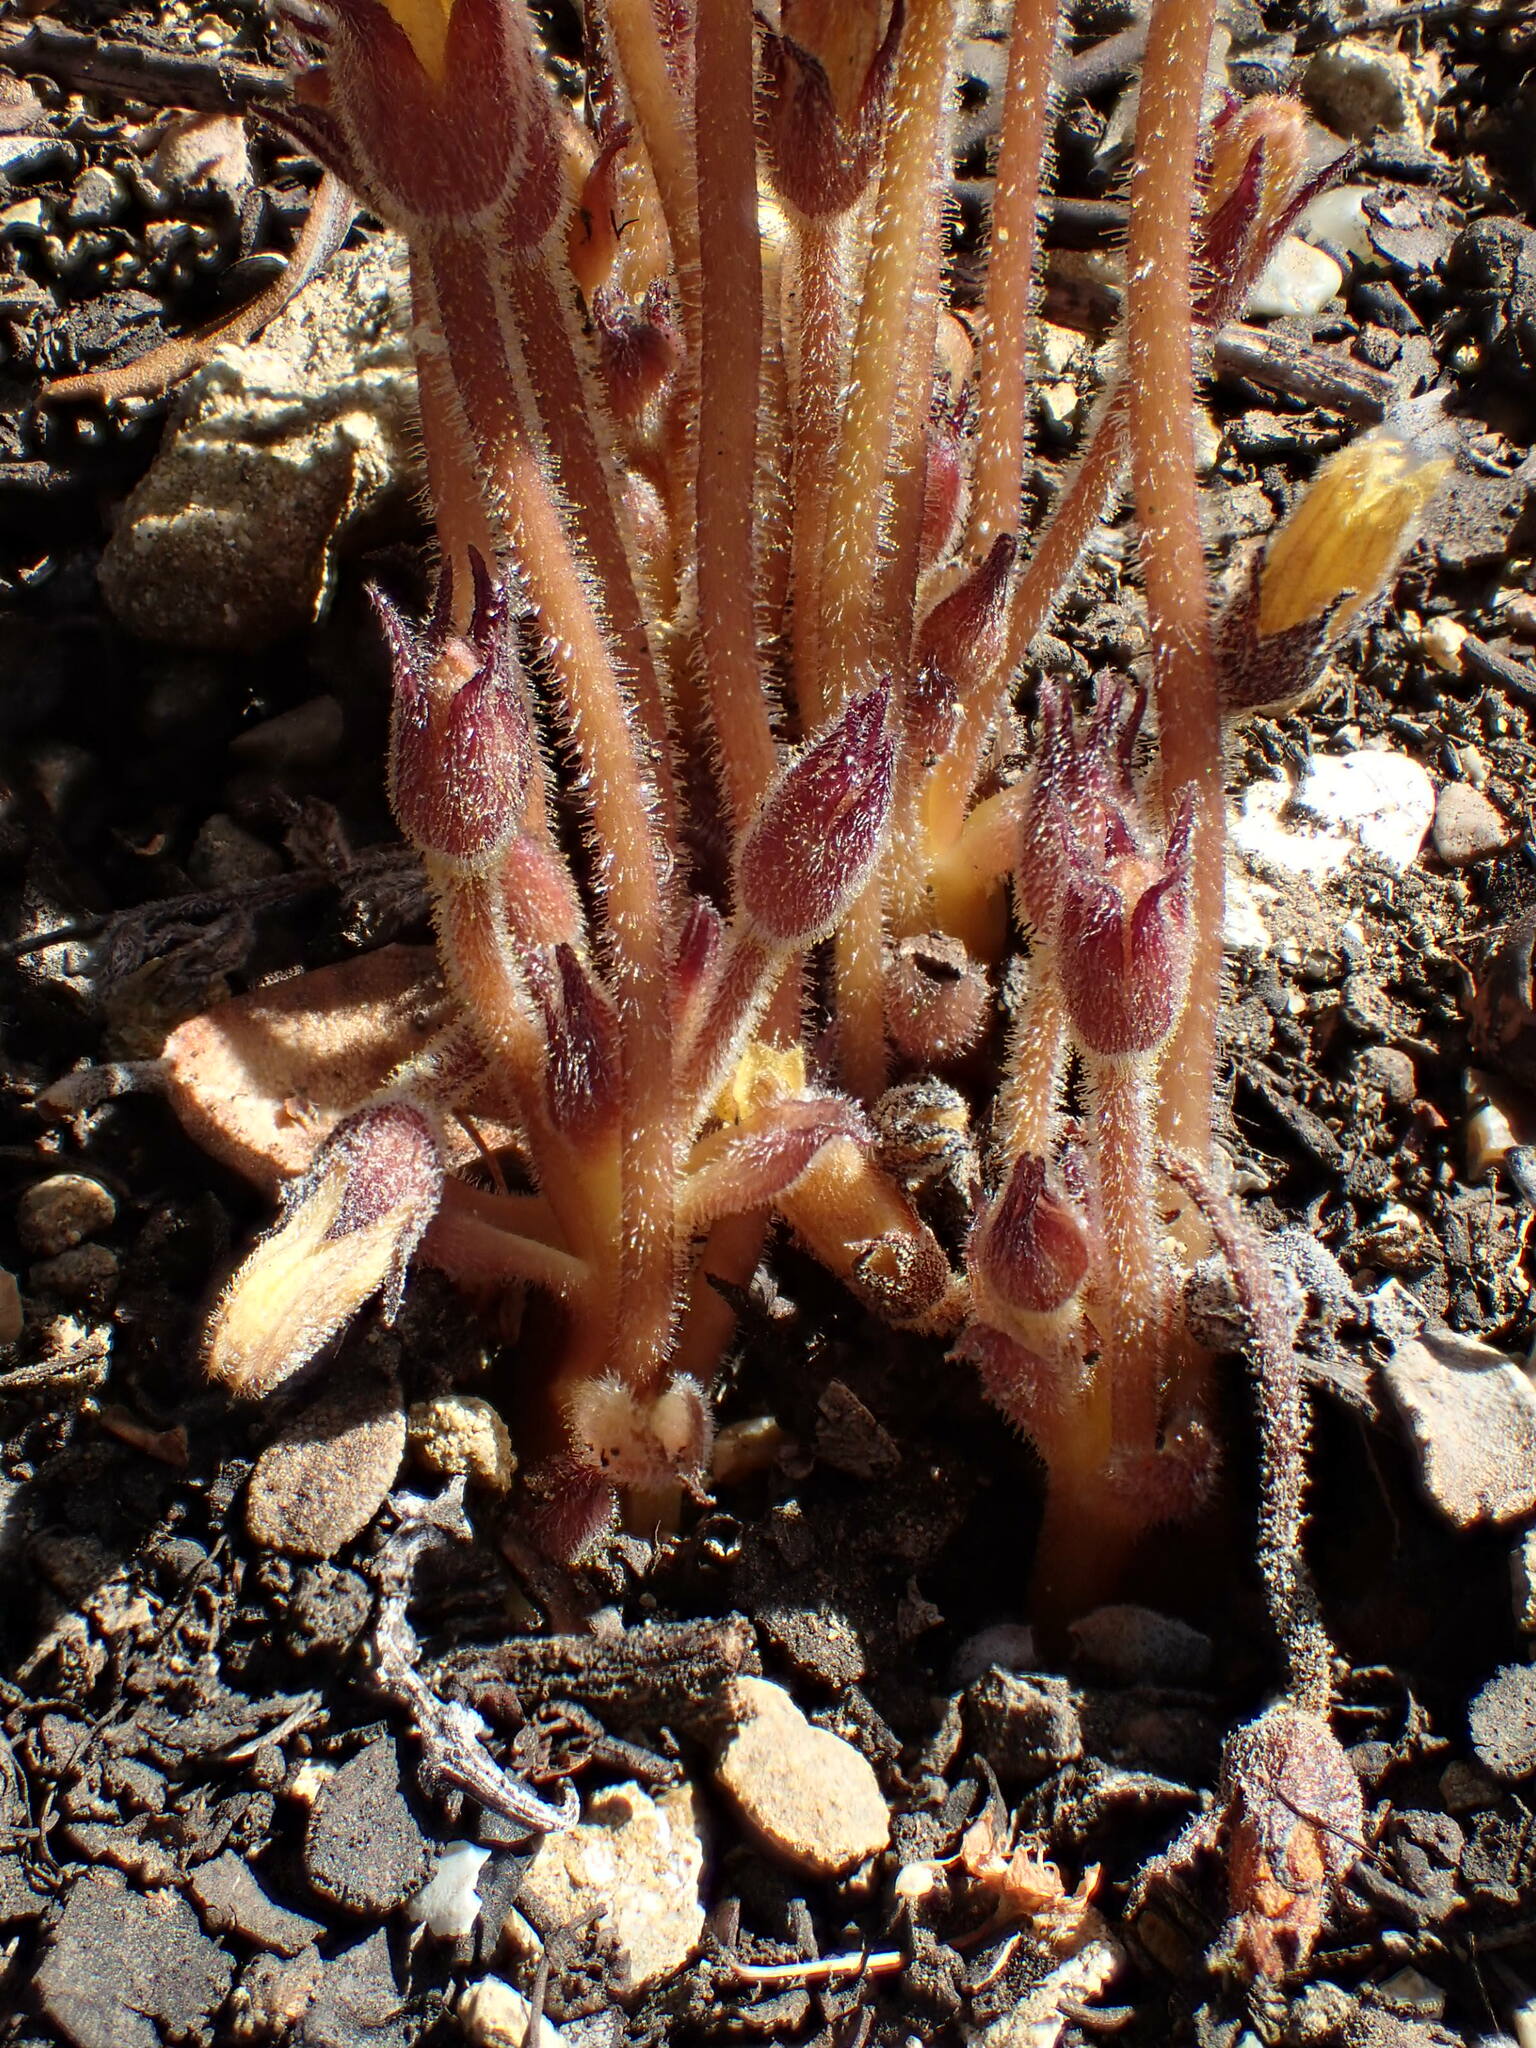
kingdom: Plantae
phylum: Tracheophyta
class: Magnoliopsida
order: Lamiales
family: Orobanchaceae
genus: Aphyllon
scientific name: Aphyllon franciscanum
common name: San francisco broomrape
